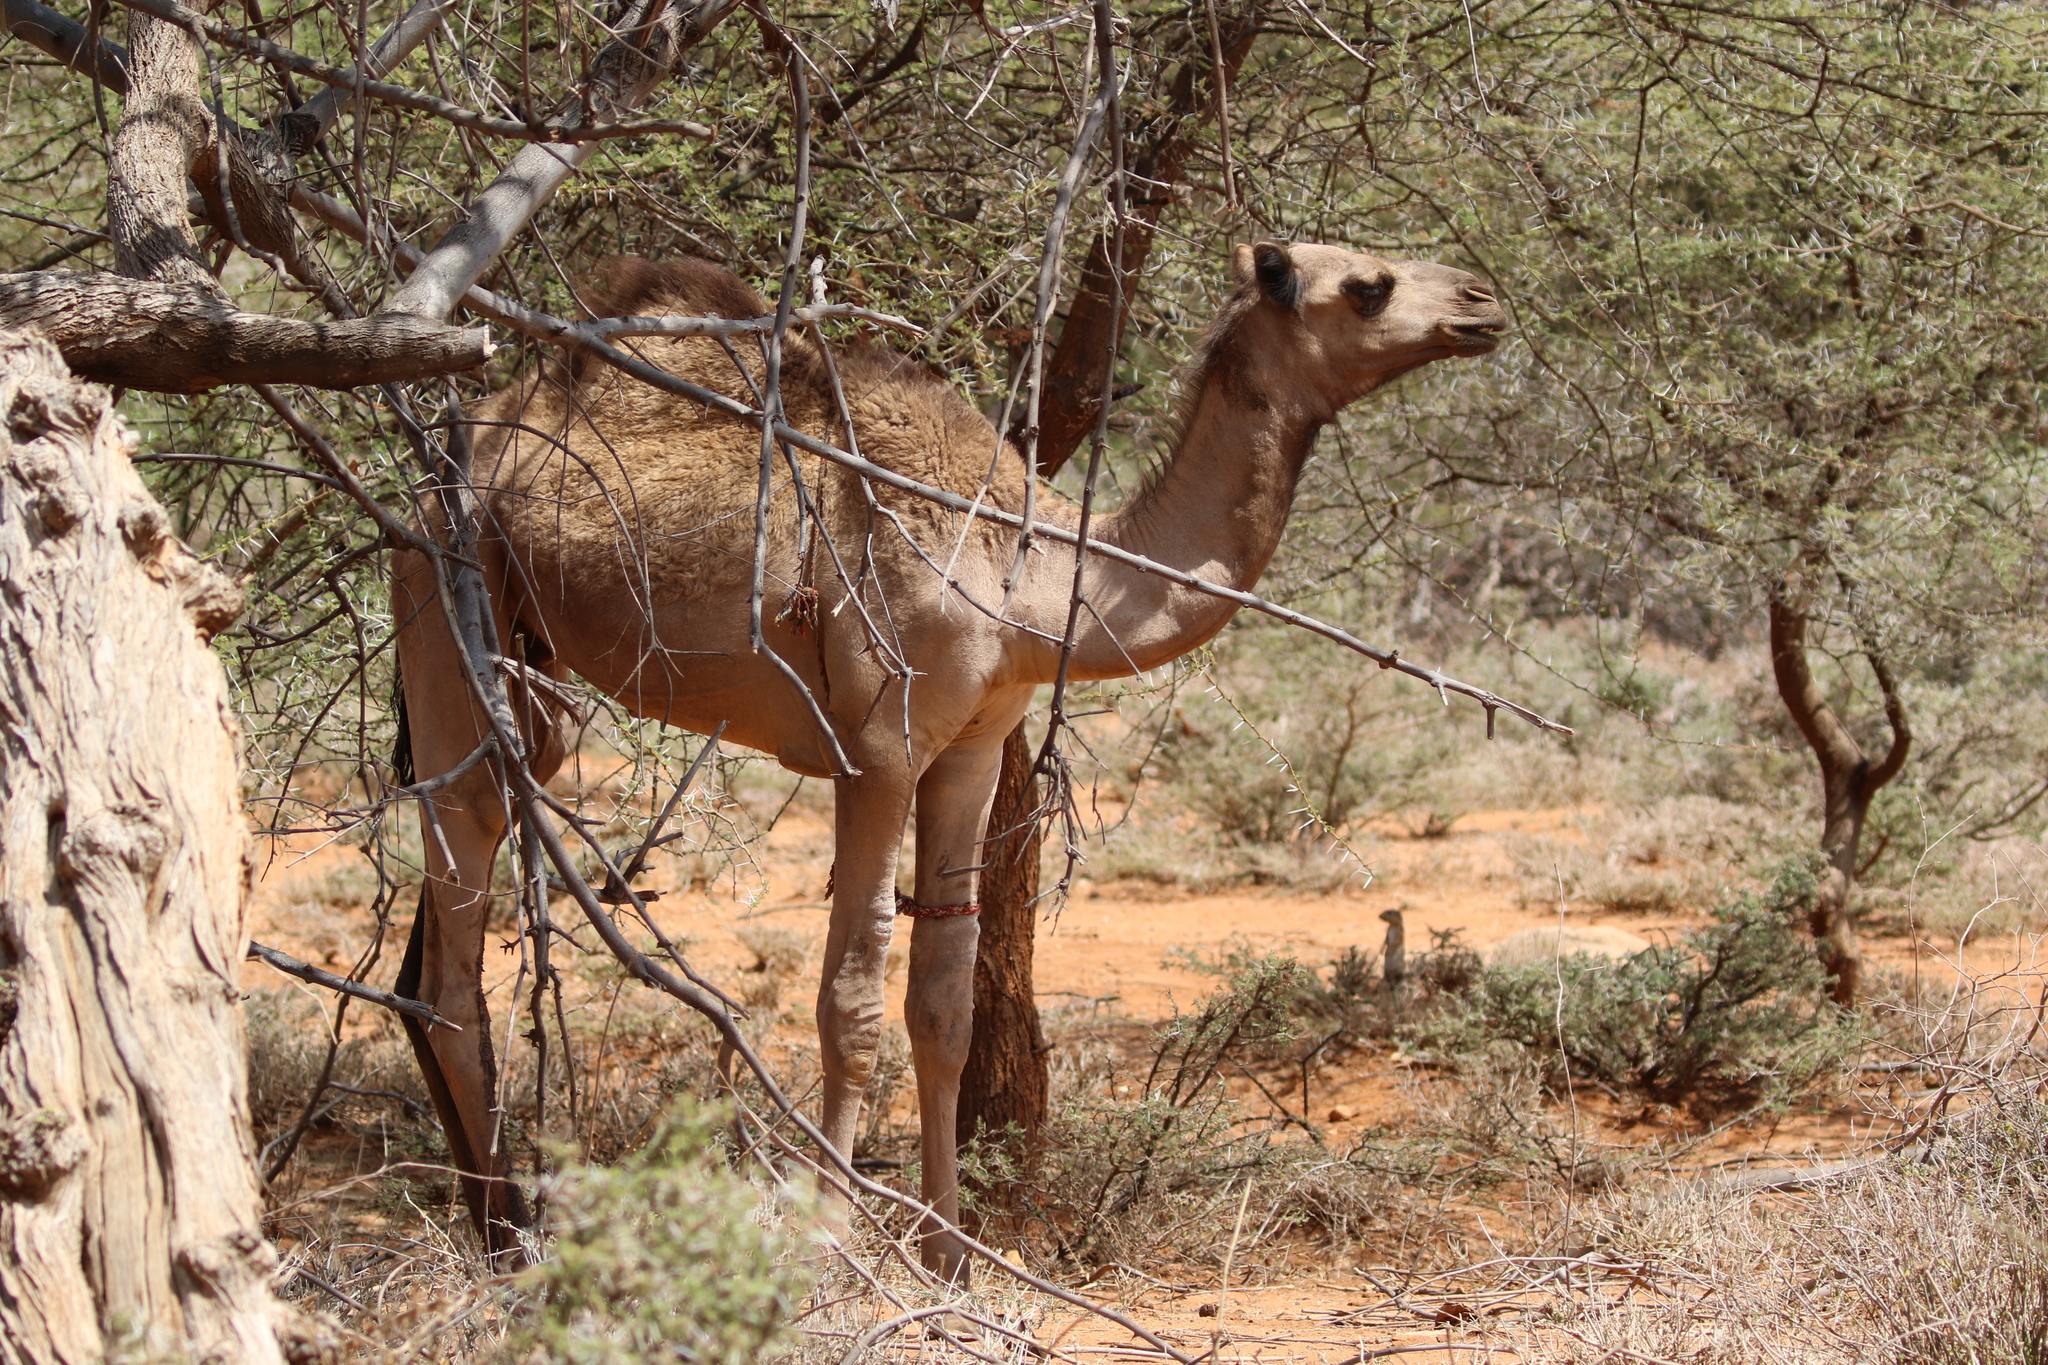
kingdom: Animalia
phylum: Chordata
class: Mammalia
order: Artiodactyla
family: Camelidae
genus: Camelus
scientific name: Camelus dromedarius
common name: One-humped camel
